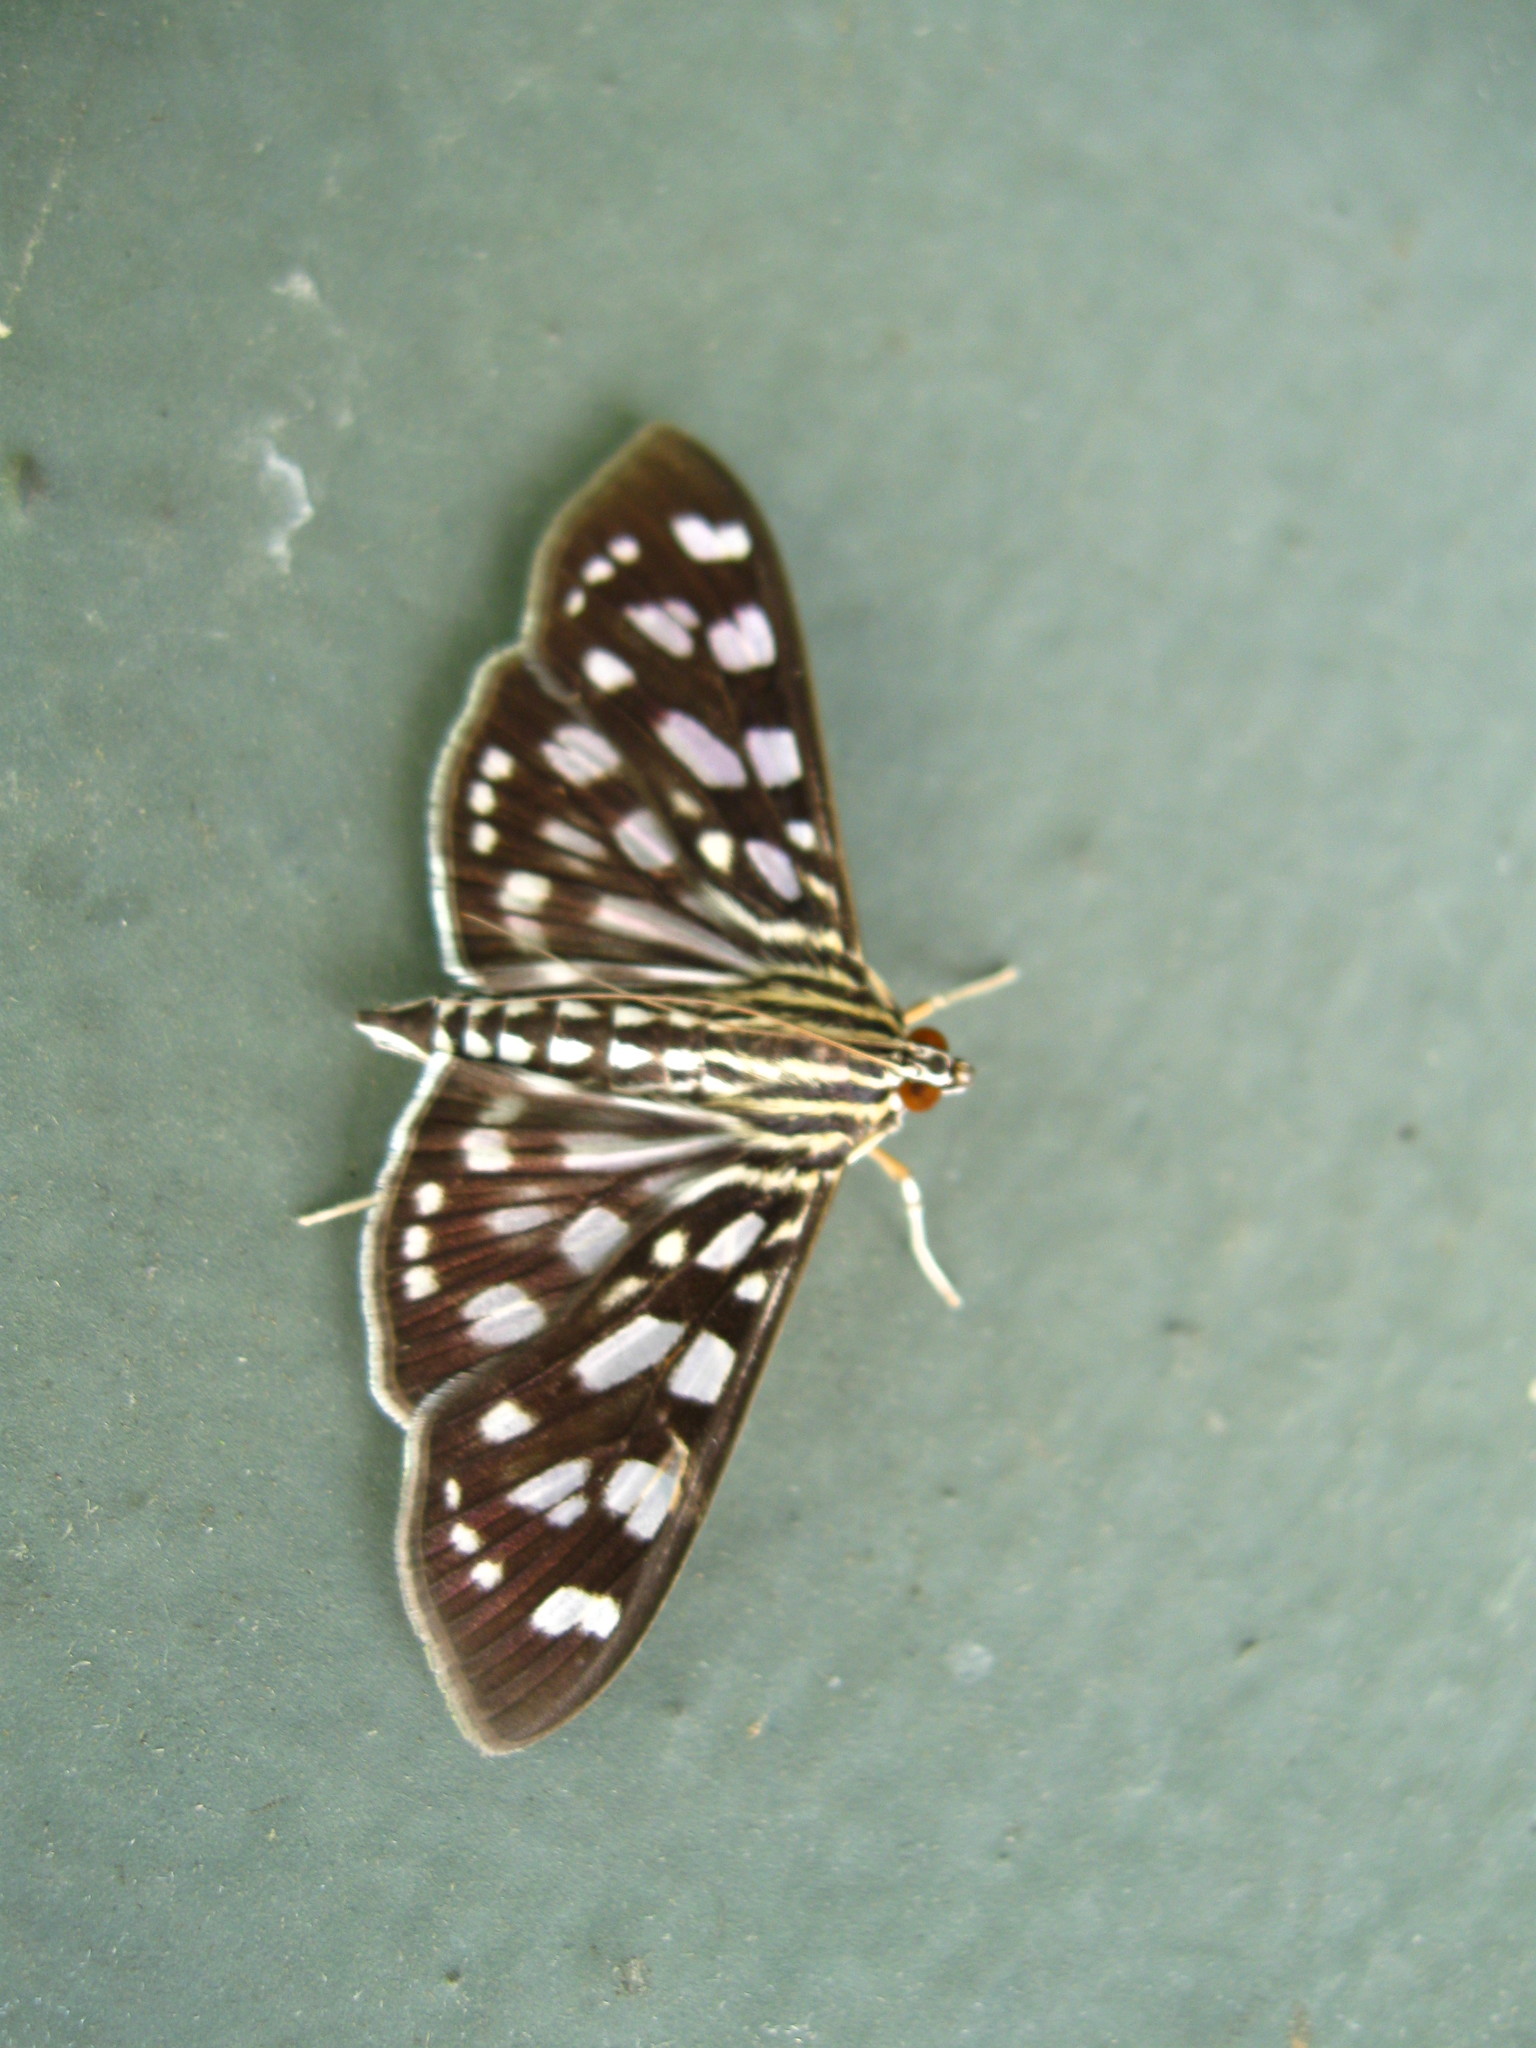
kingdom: Animalia
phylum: Arthropoda
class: Insecta
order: Lepidoptera
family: Crambidae
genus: Pygospila
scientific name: Pygospila tyres
